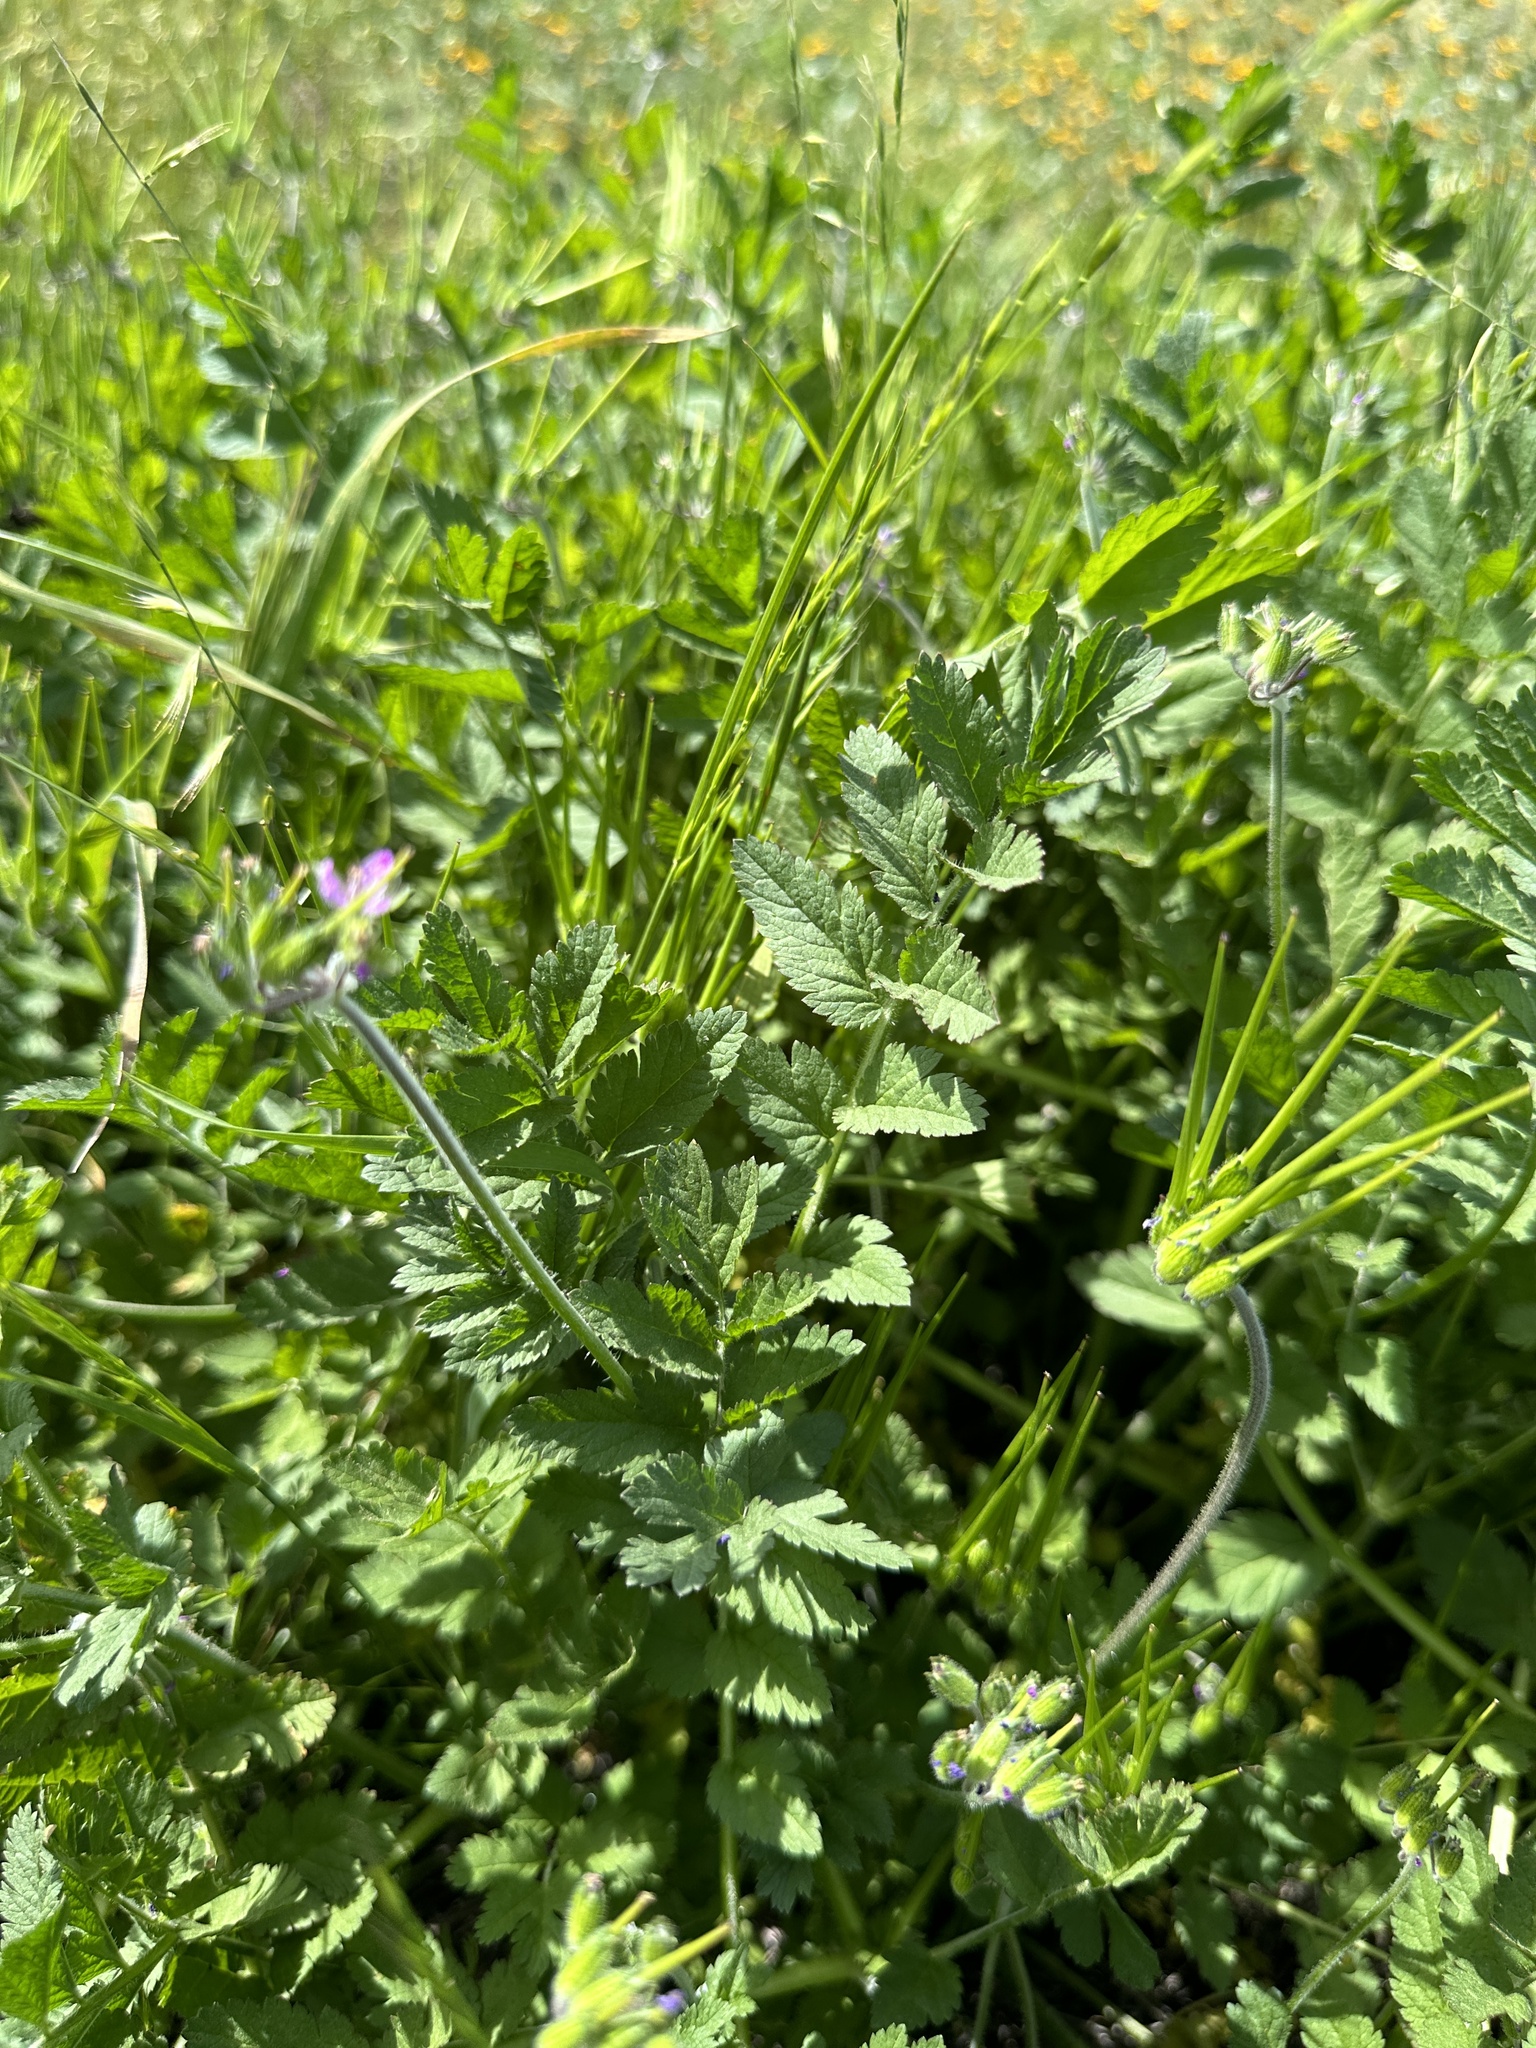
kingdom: Plantae
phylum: Tracheophyta
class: Magnoliopsida
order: Geraniales
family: Geraniaceae
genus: Erodium
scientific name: Erodium moschatum
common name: Musk stork's-bill
